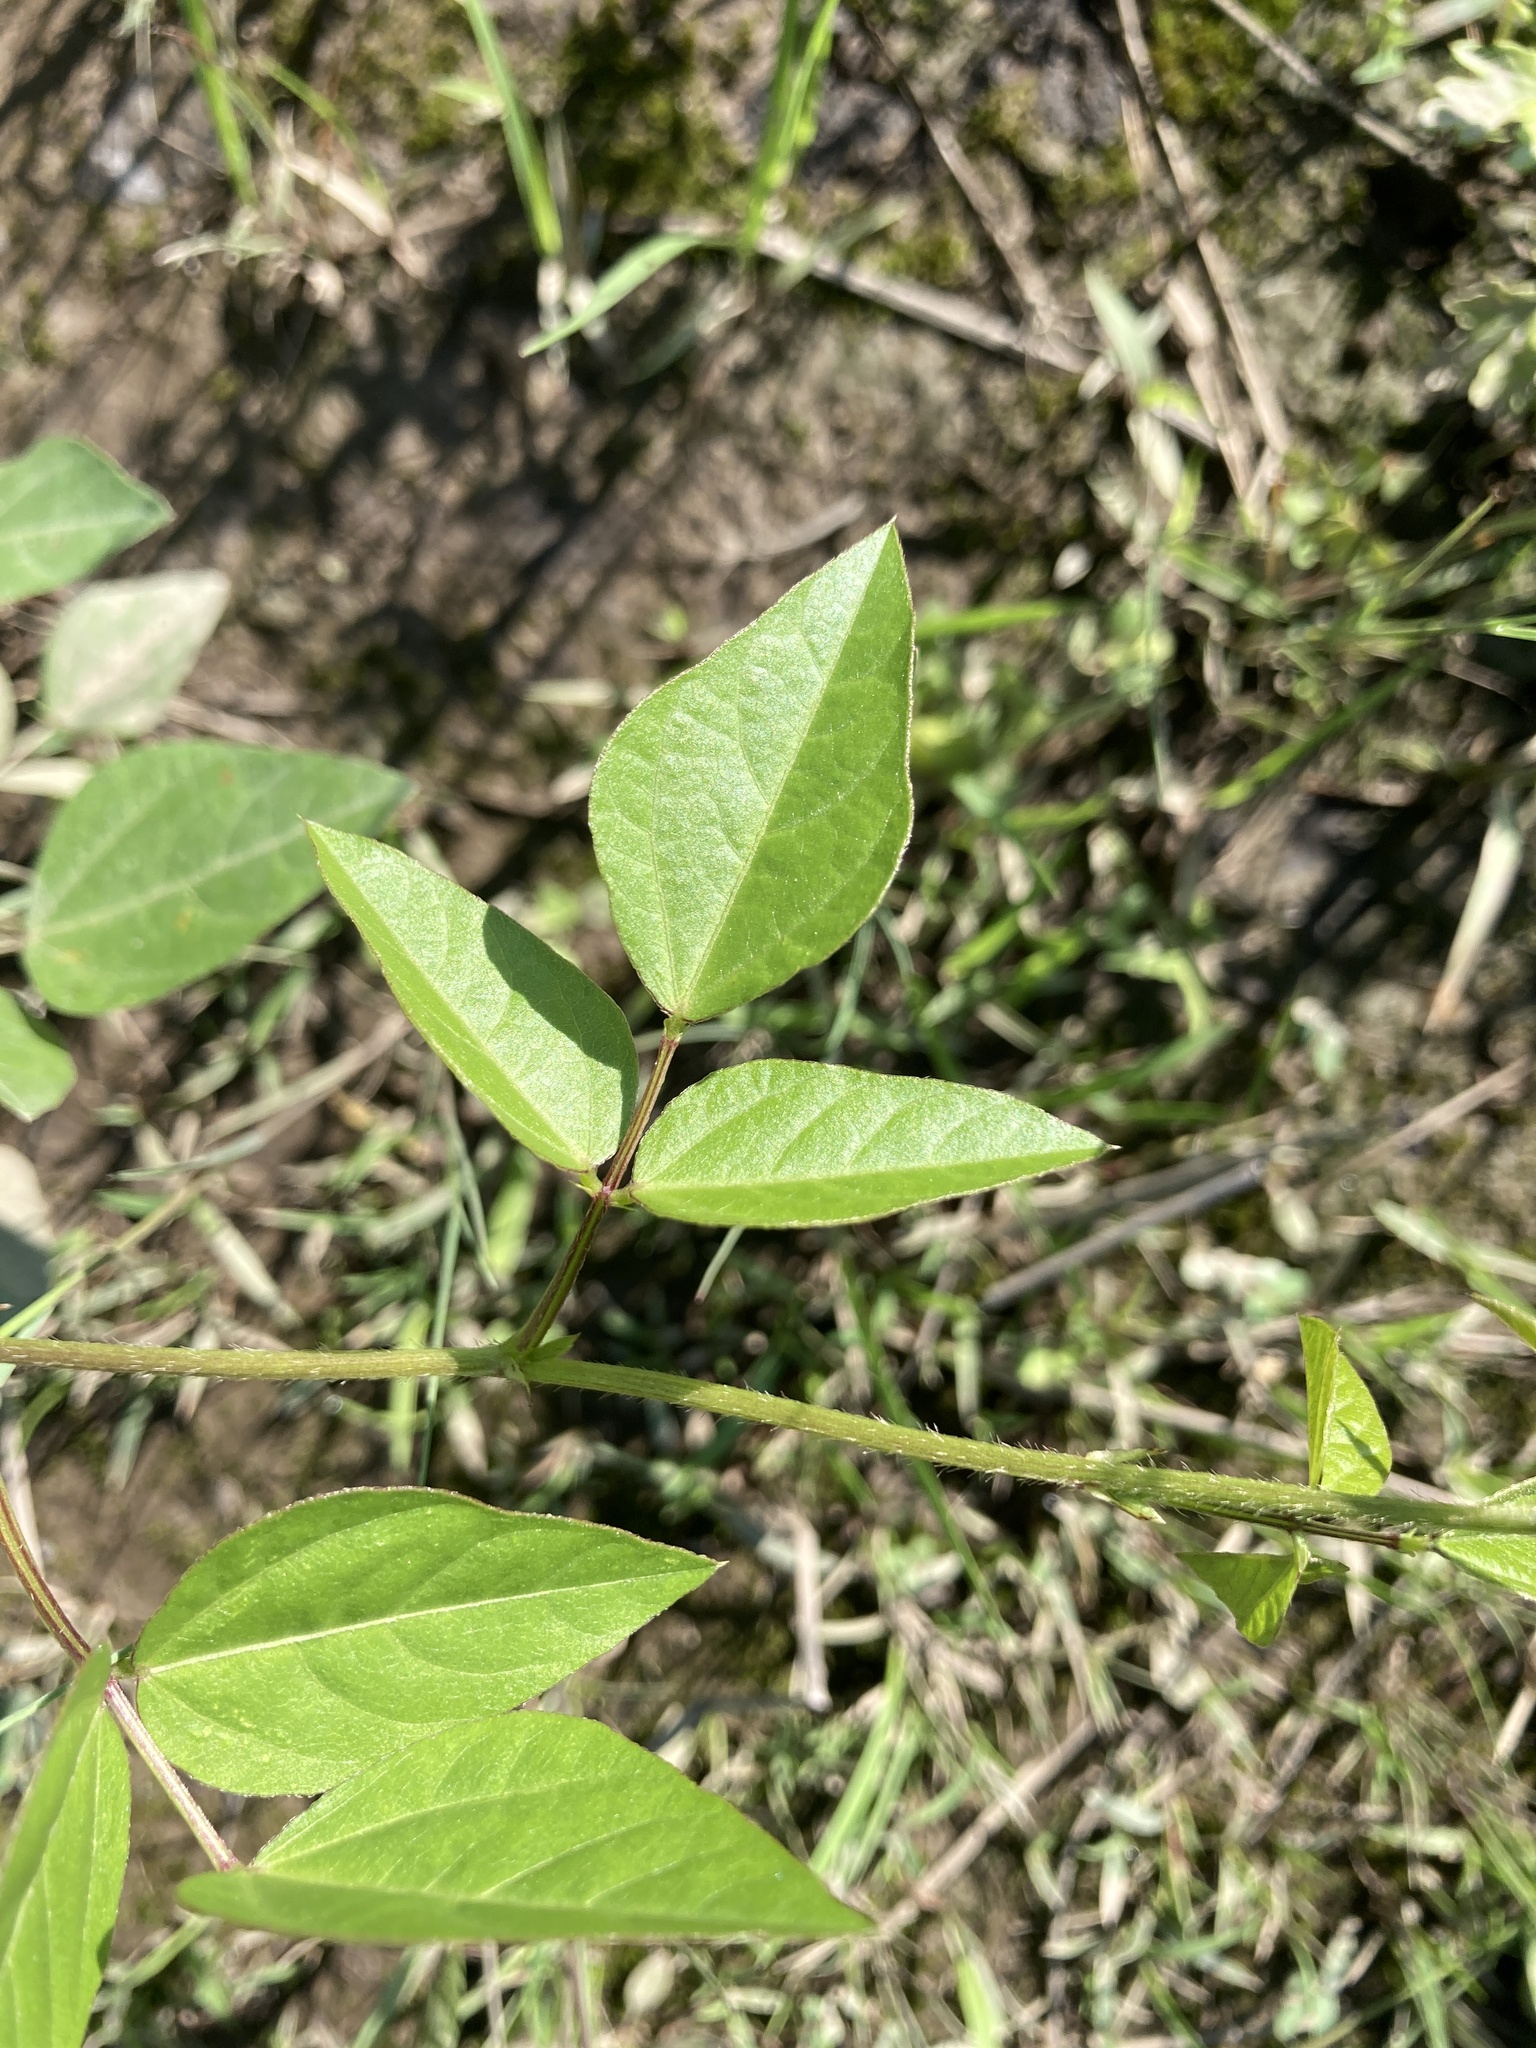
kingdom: Plantae
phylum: Tracheophyta
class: Magnoliopsida
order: Fabales
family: Fabaceae
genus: Amphicarpaea
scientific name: Amphicarpaea bracteata
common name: American hog peanut
